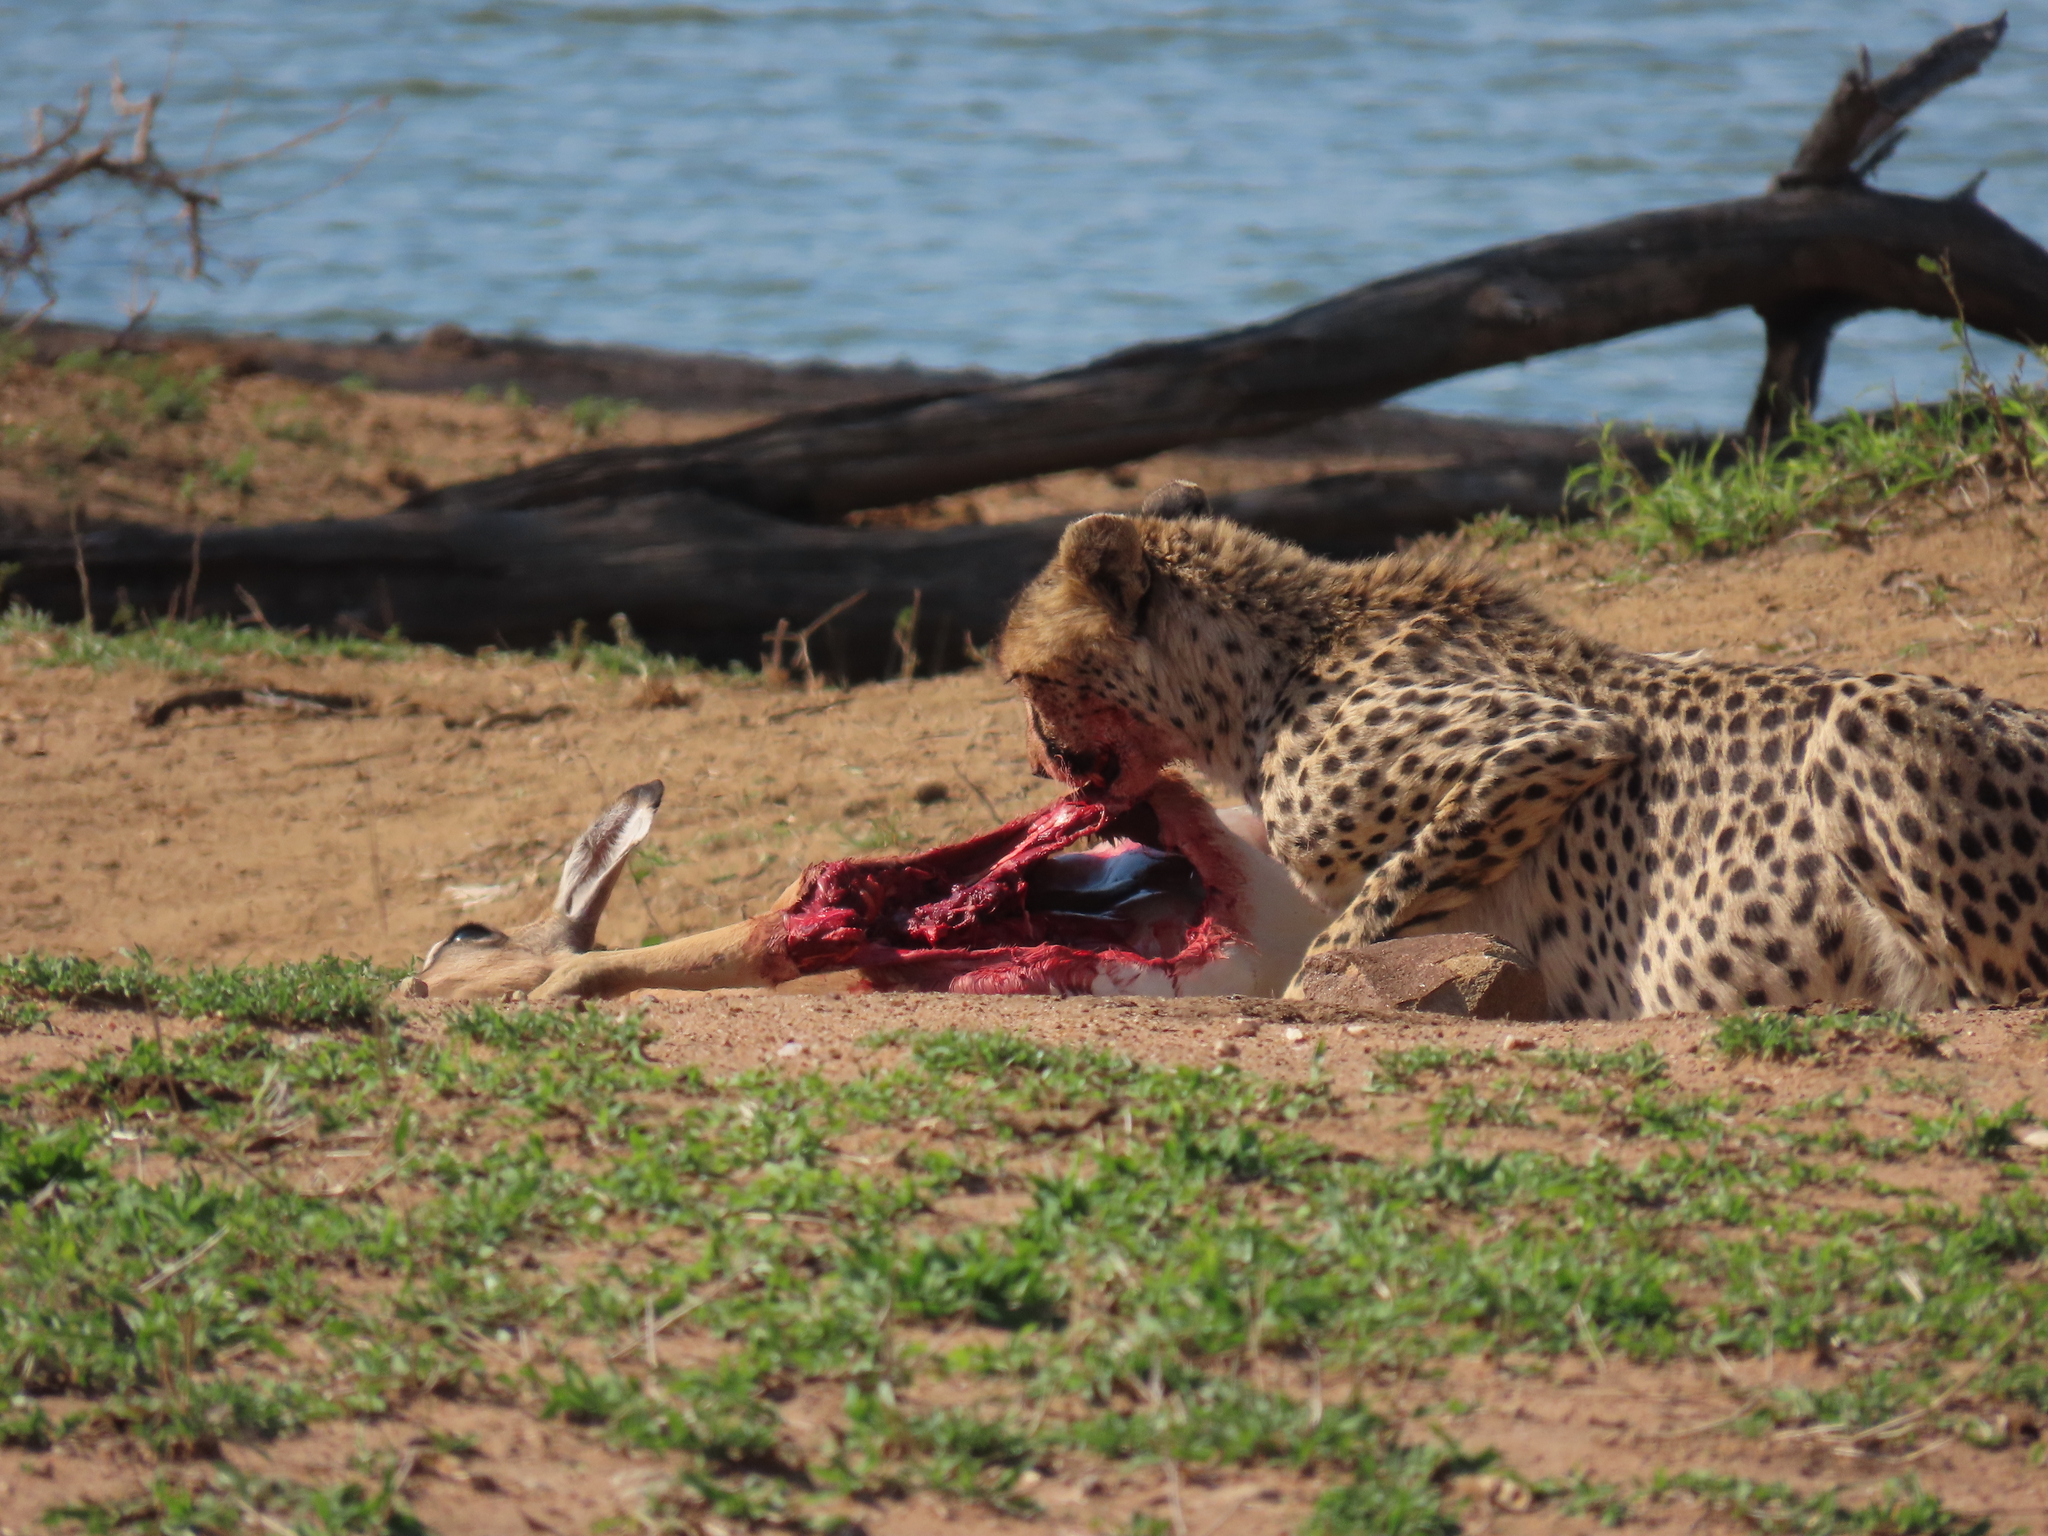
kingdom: Animalia
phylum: Chordata
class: Mammalia
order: Artiodactyla
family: Bovidae
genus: Aepyceros
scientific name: Aepyceros melampus
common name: Impala
